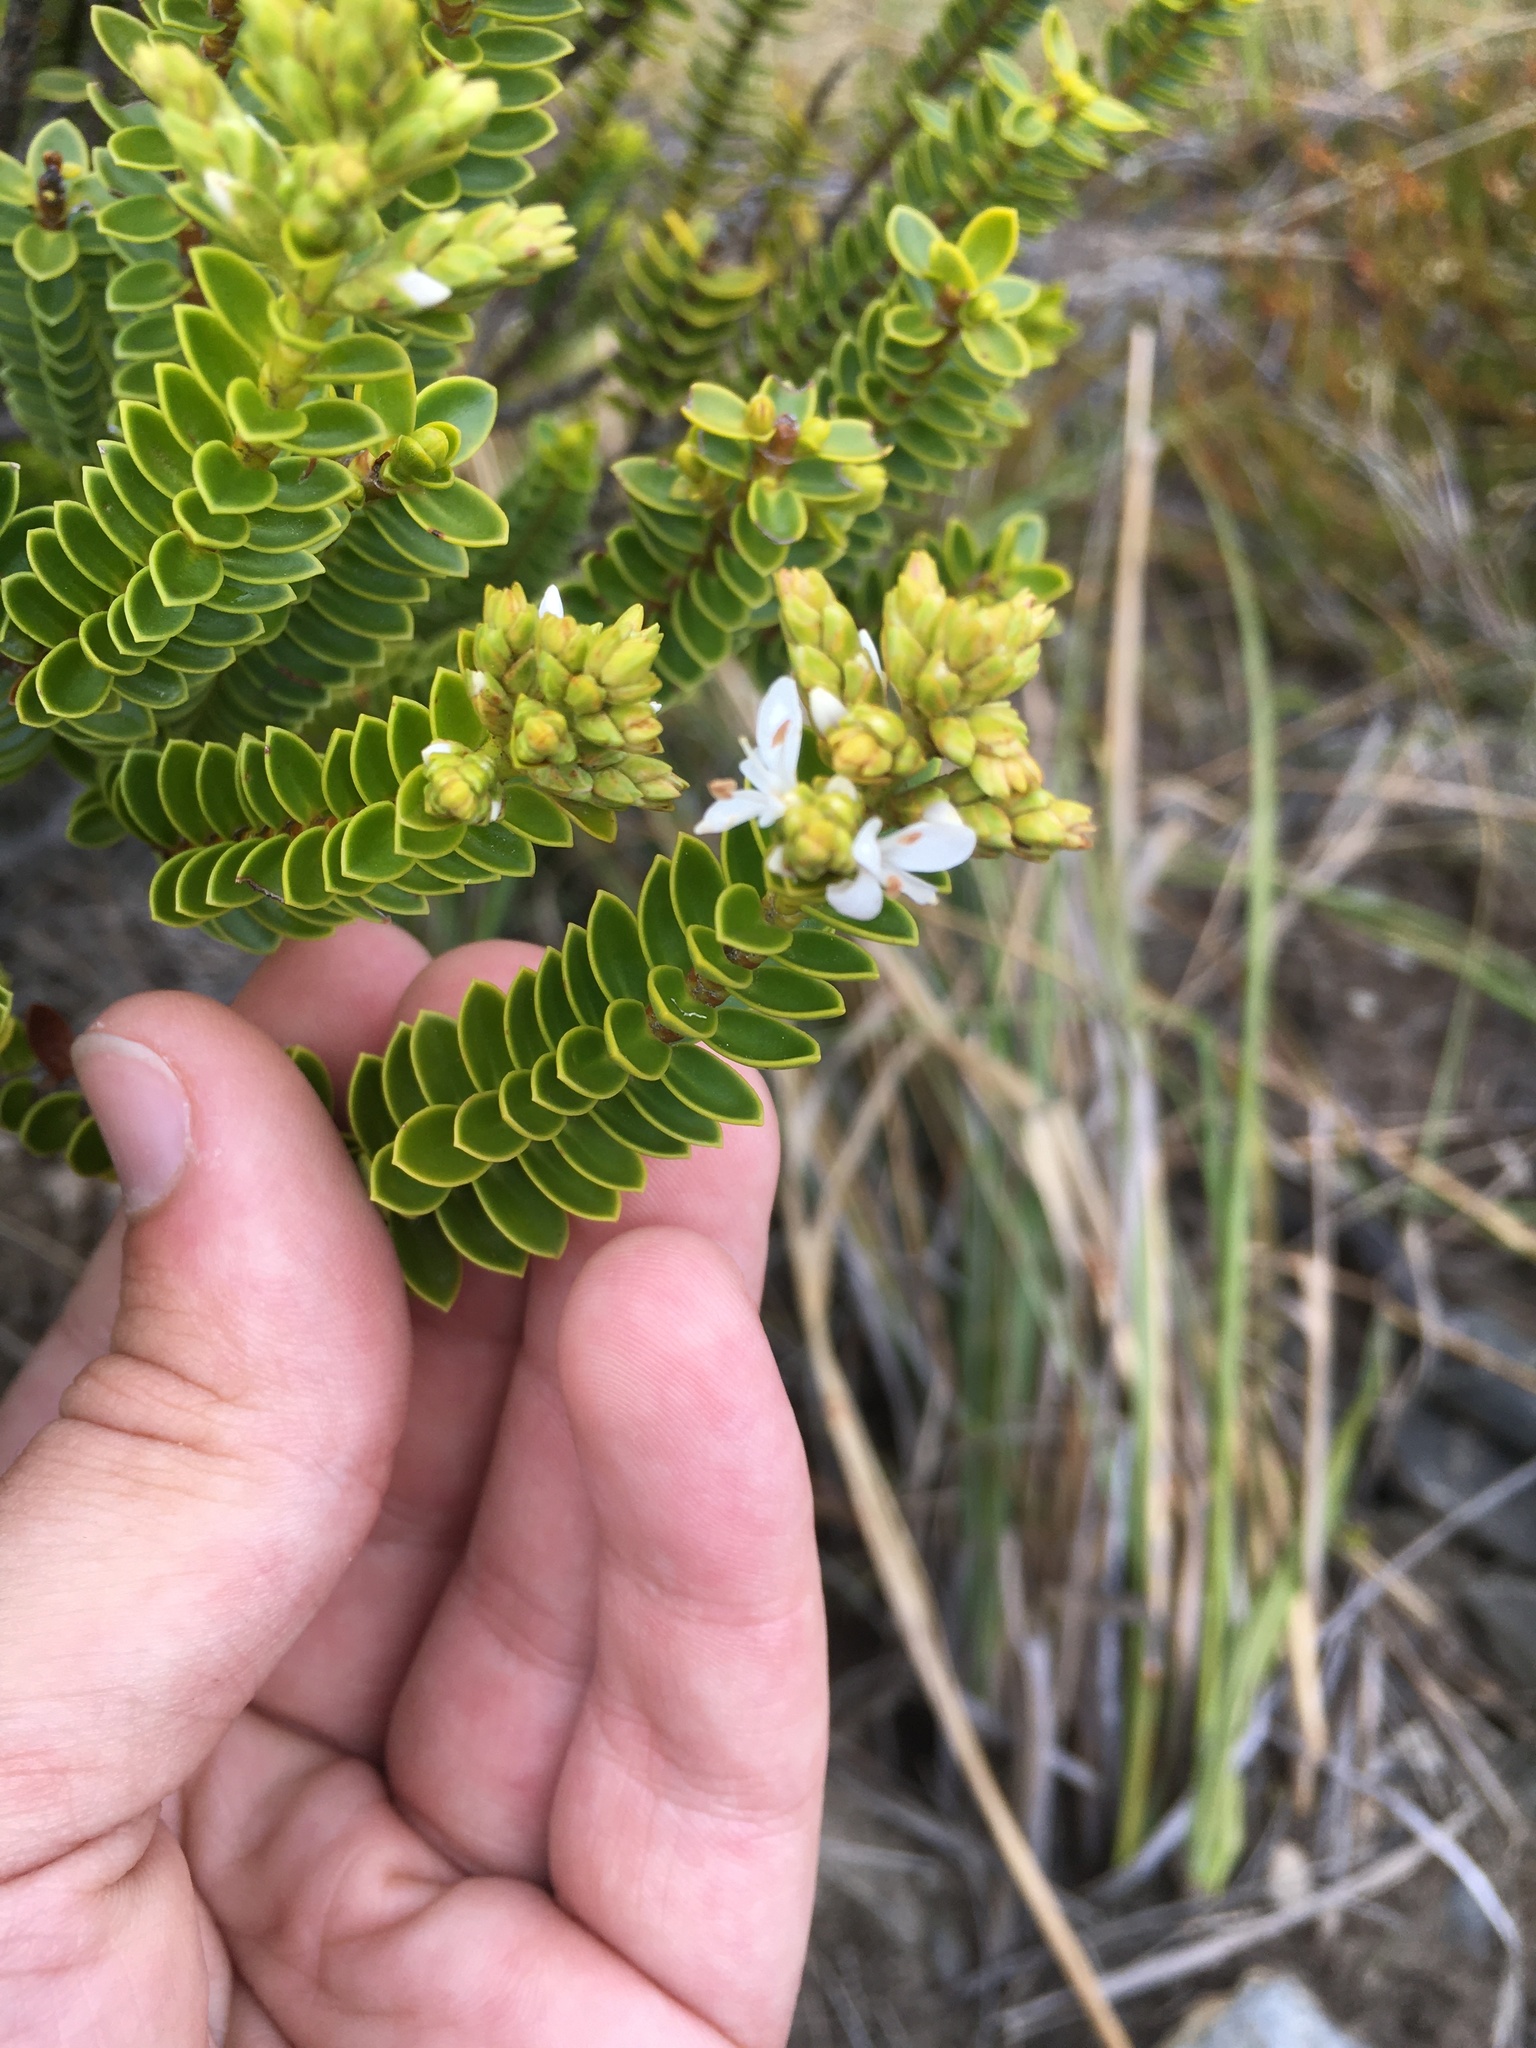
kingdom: Plantae
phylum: Tracheophyta
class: Magnoliopsida
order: Lamiales
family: Plantaginaceae
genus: Veronica
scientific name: Veronica odora
